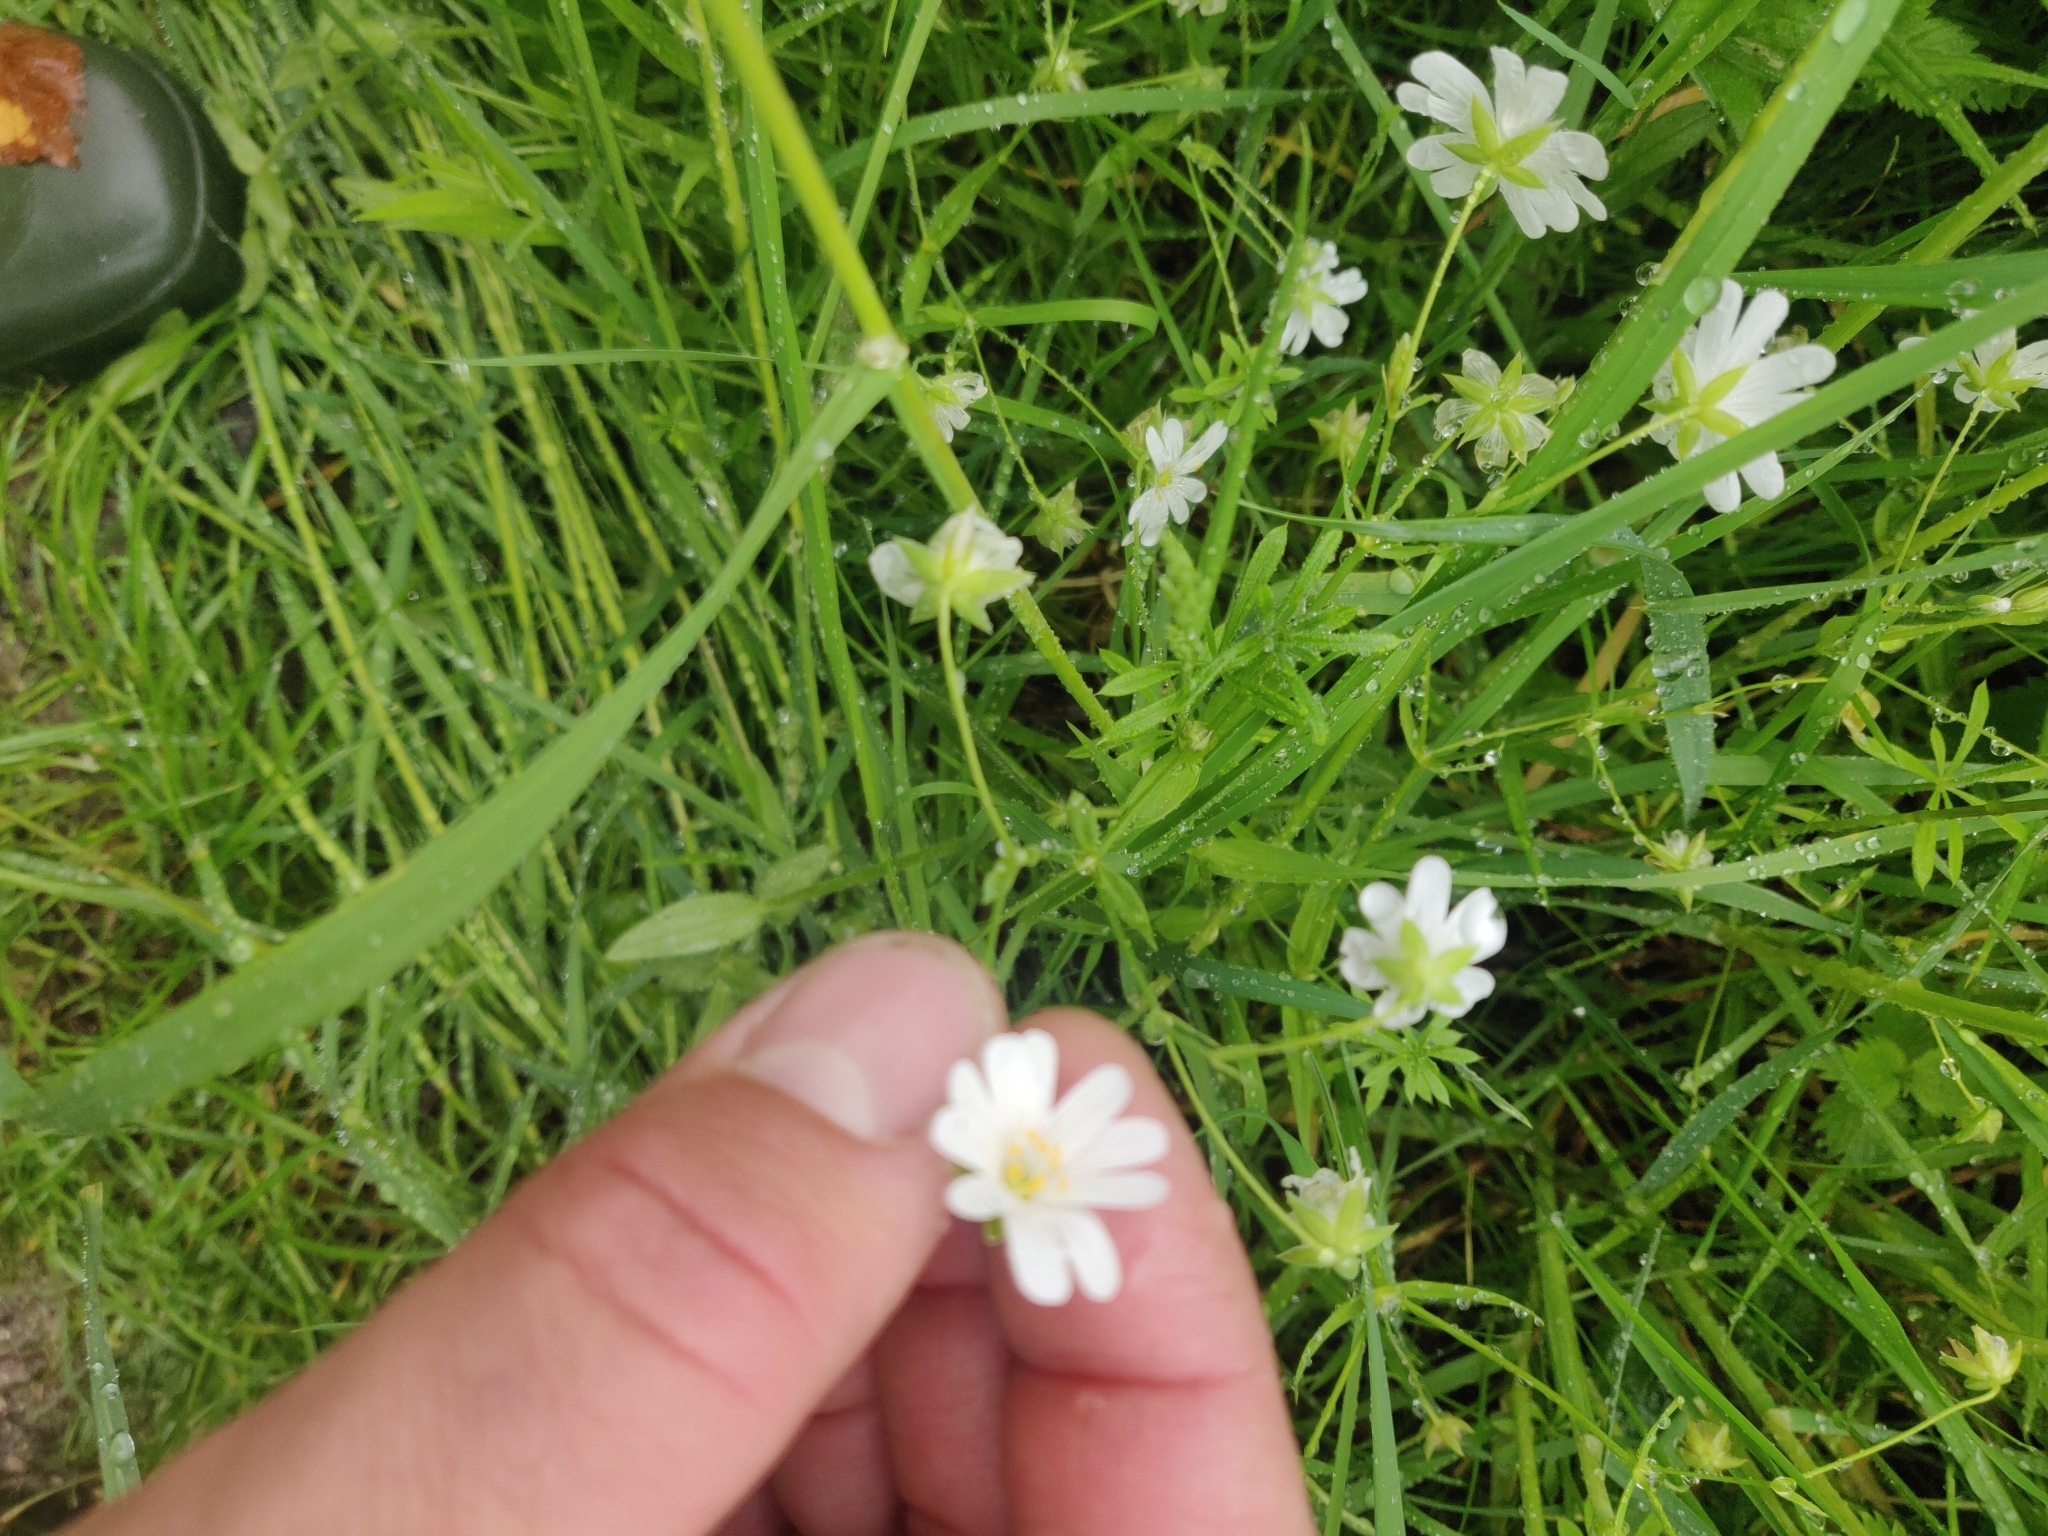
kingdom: Plantae
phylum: Tracheophyta
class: Magnoliopsida
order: Caryophyllales
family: Caryophyllaceae
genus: Rabelera
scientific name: Rabelera holostea
